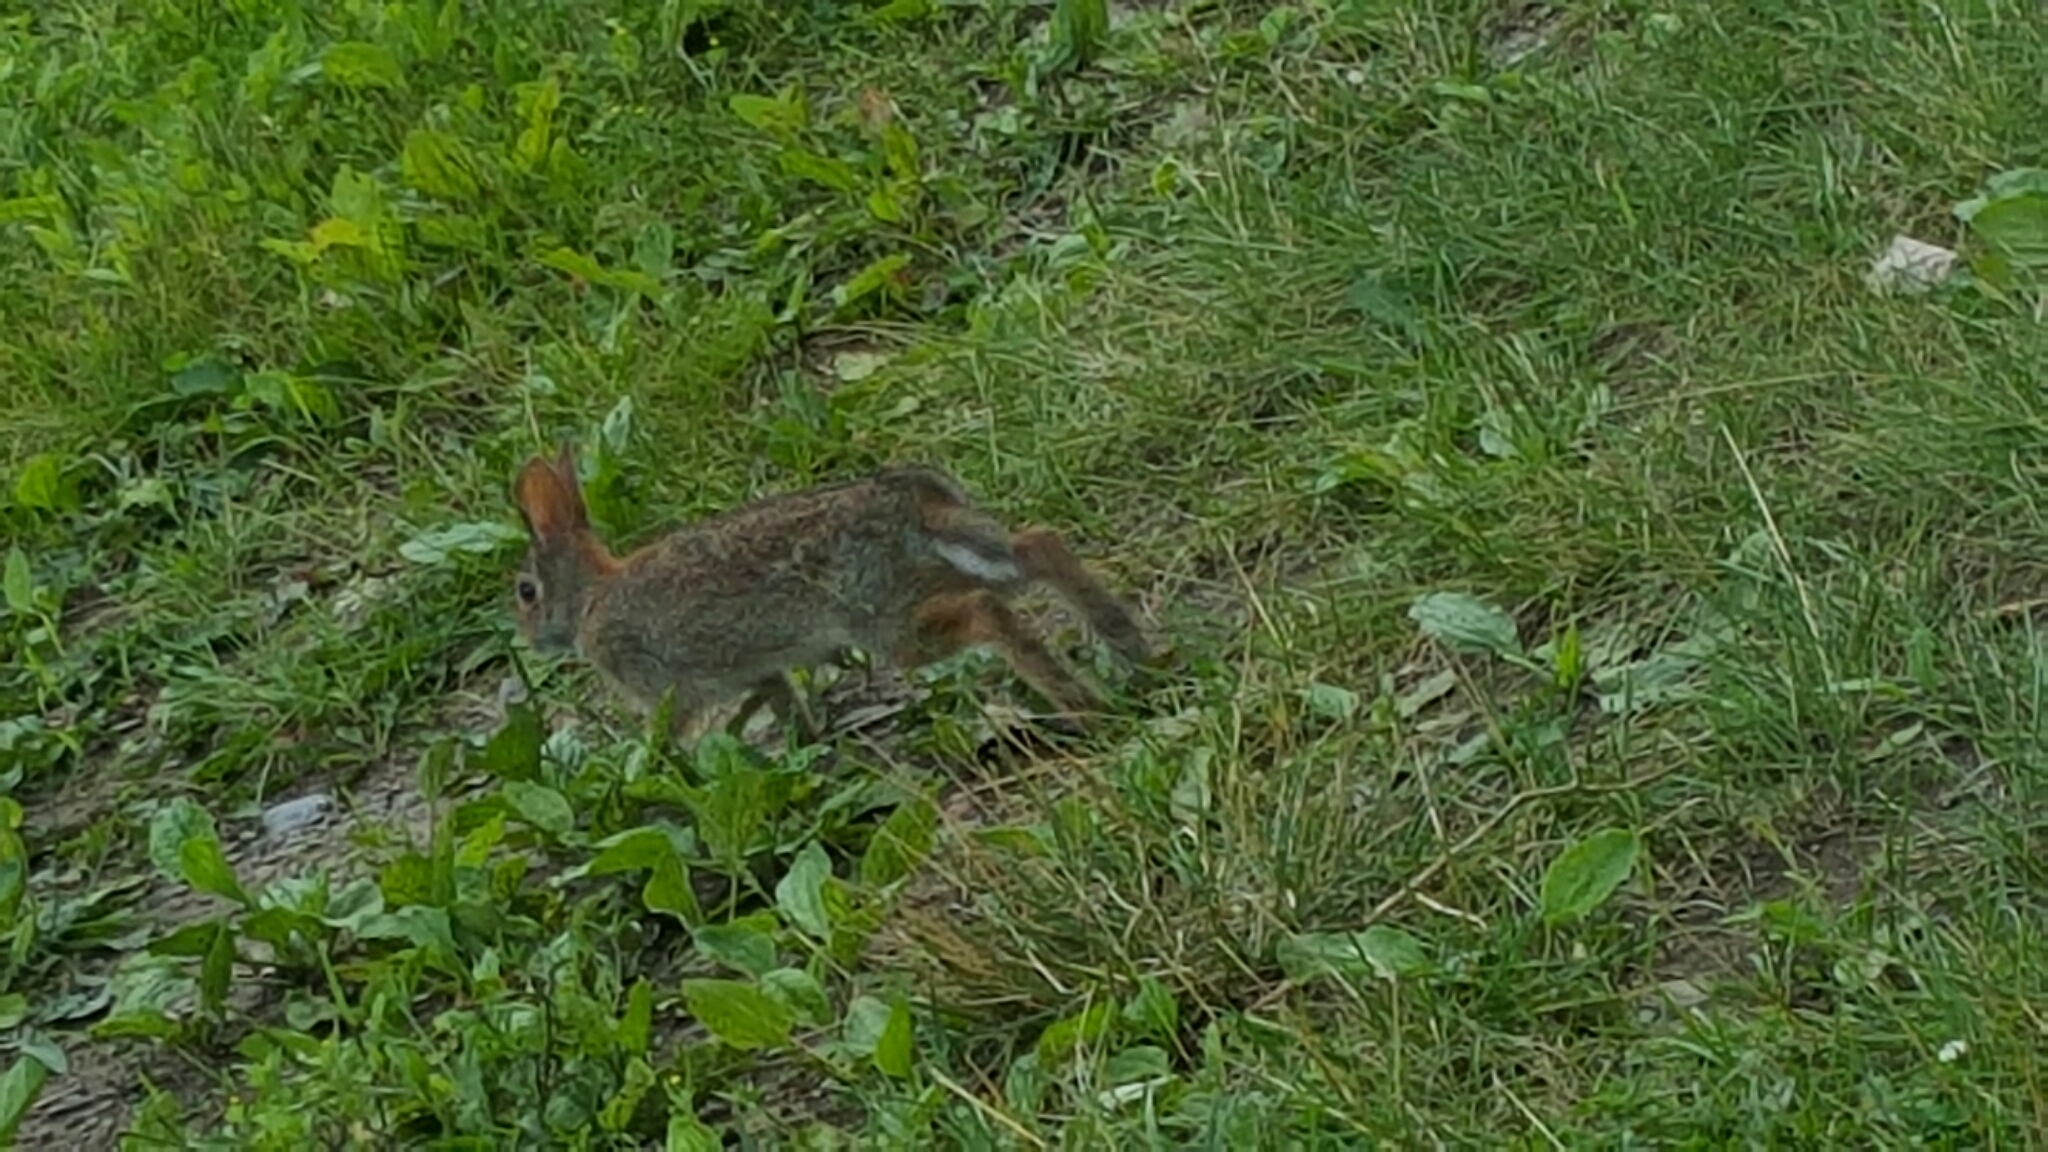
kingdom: Animalia
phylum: Chordata
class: Mammalia
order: Lagomorpha
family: Leporidae
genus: Sylvilagus
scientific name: Sylvilagus floridanus
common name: Eastern cottontail
